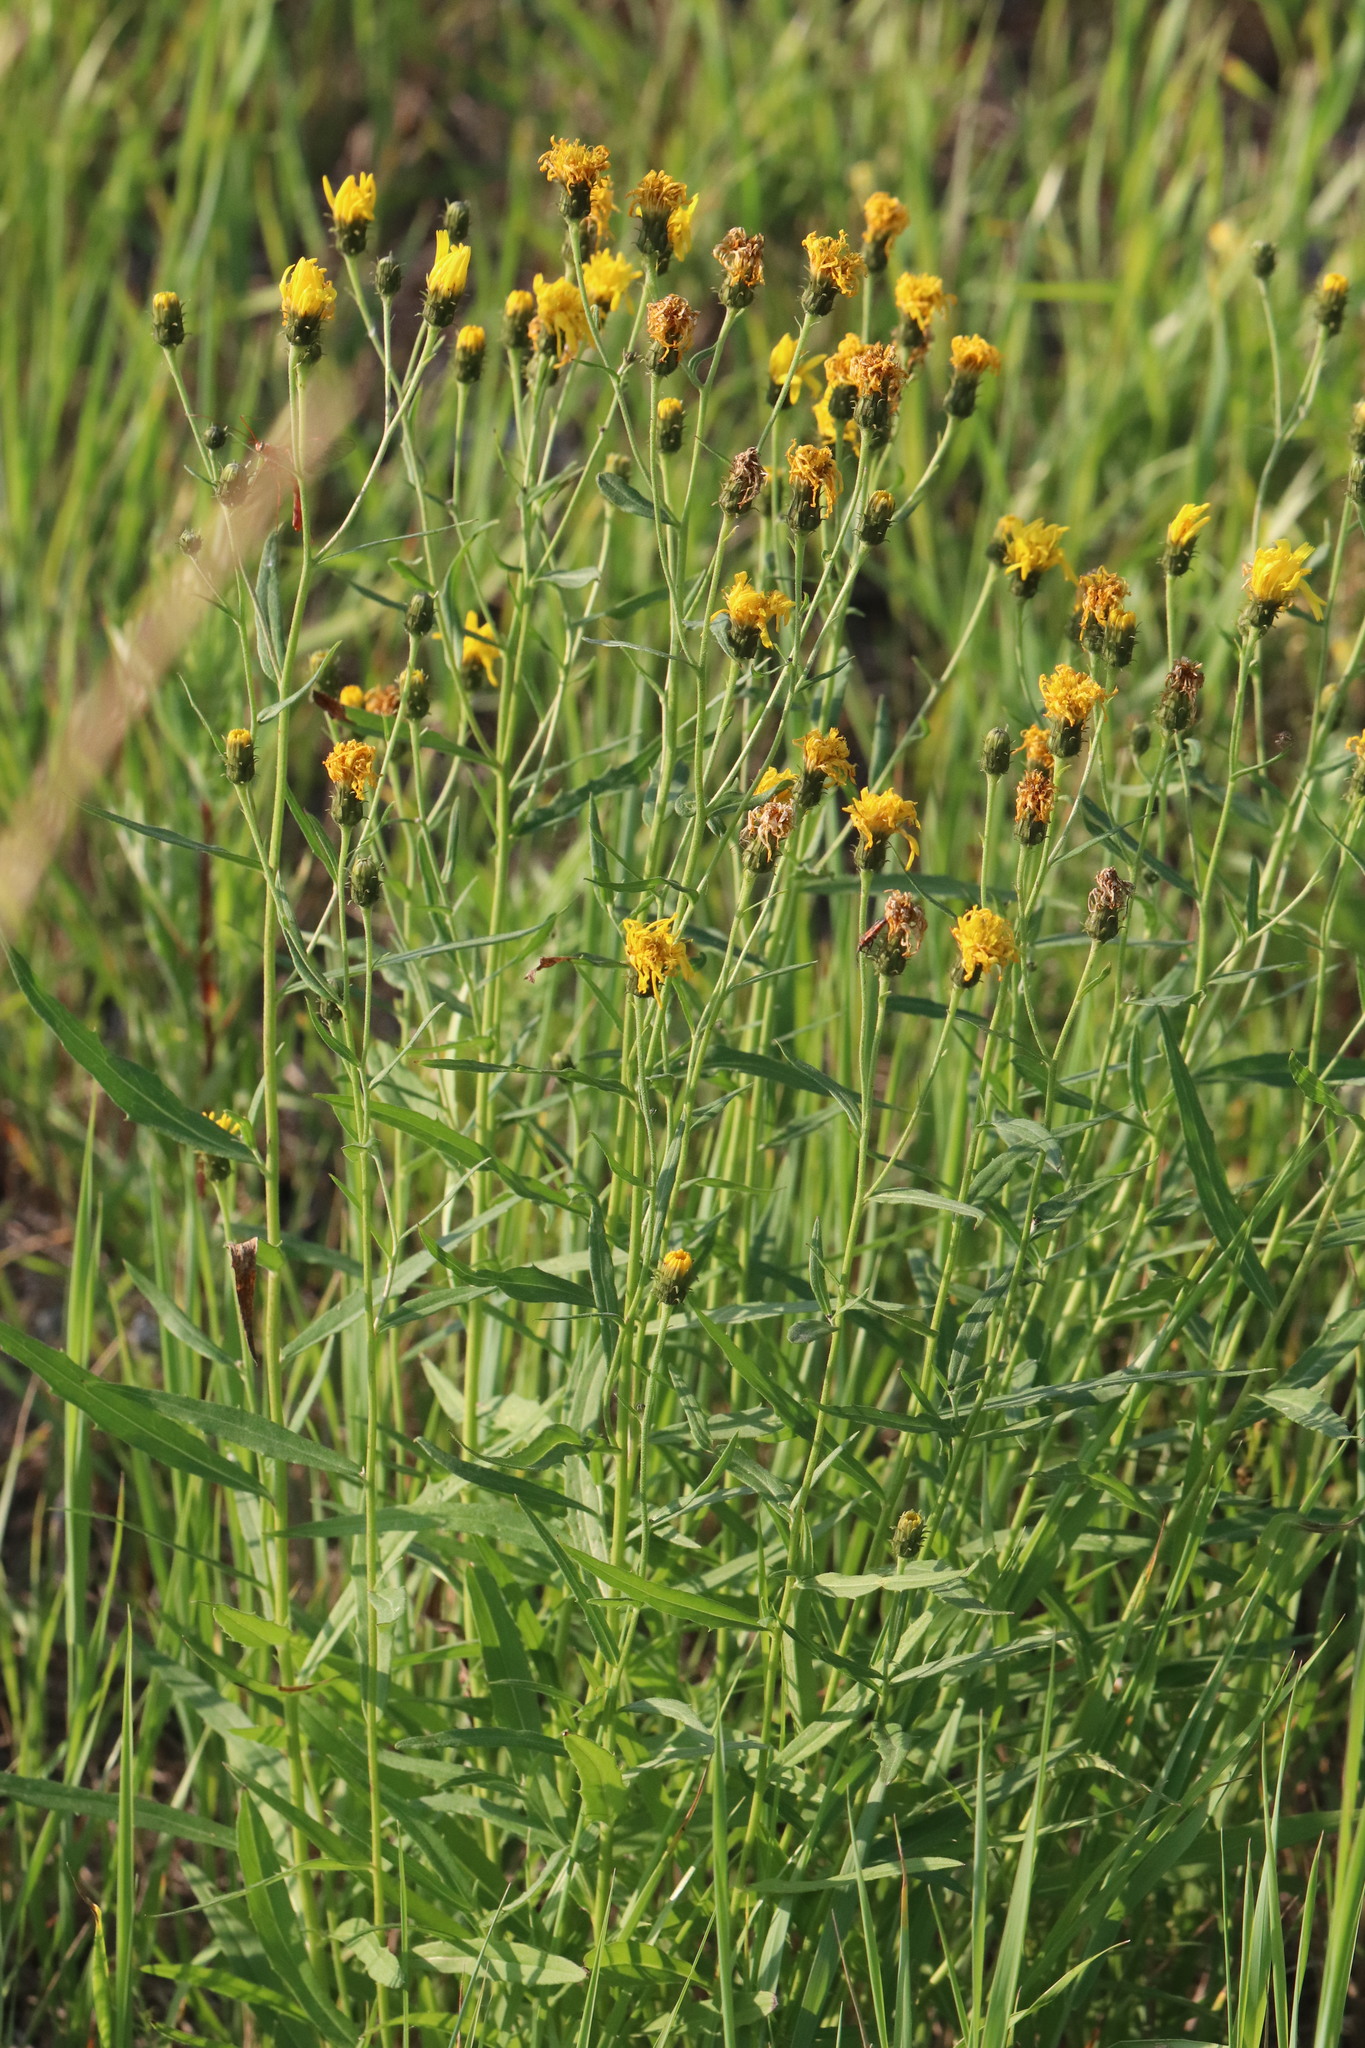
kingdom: Plantae
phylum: Tracheophyta
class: Magnoliopsida
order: Asterales
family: Asteraceae
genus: Hieracium
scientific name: Hieracium umbellatum
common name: Northern hawkweed
